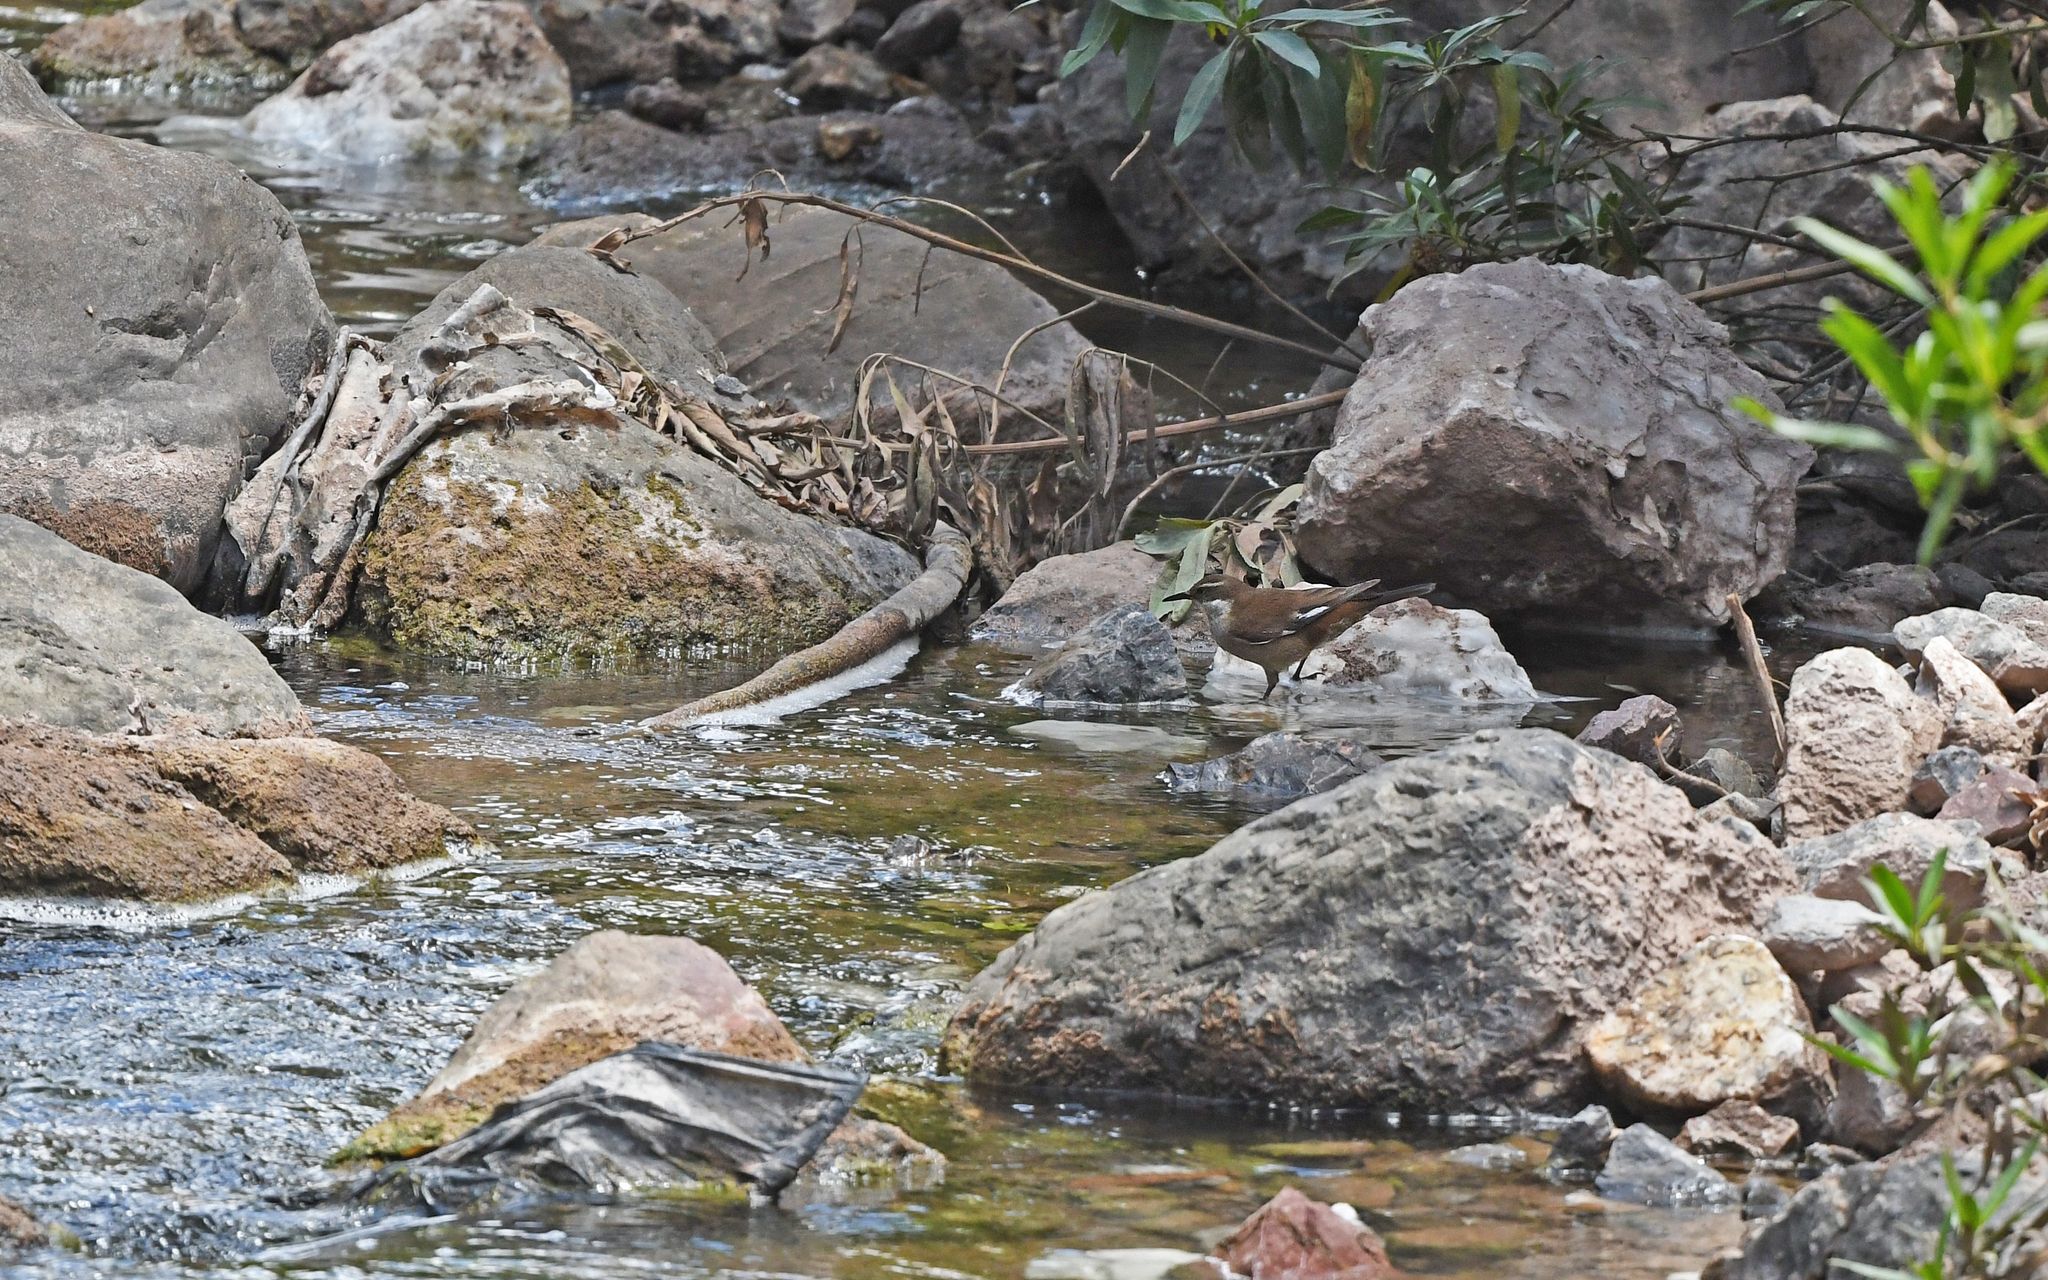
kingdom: Animalia
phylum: Chordata
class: Aves
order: Passeriformes
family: Furnariidae
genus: Cinclodes
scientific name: Cinclodes atacamensis
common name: White-winged cinclodes
